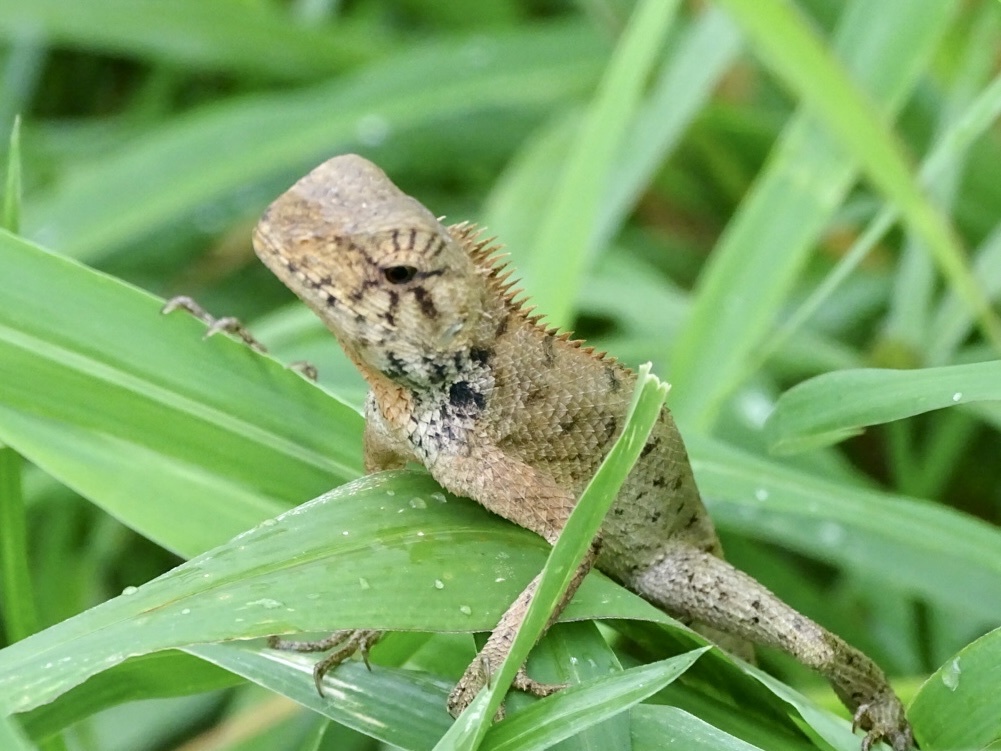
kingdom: Animalia
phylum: Chordata
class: Squamata
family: Agamidae
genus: Calotes
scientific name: Calotes versicolor
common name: Oriental garden lizard
